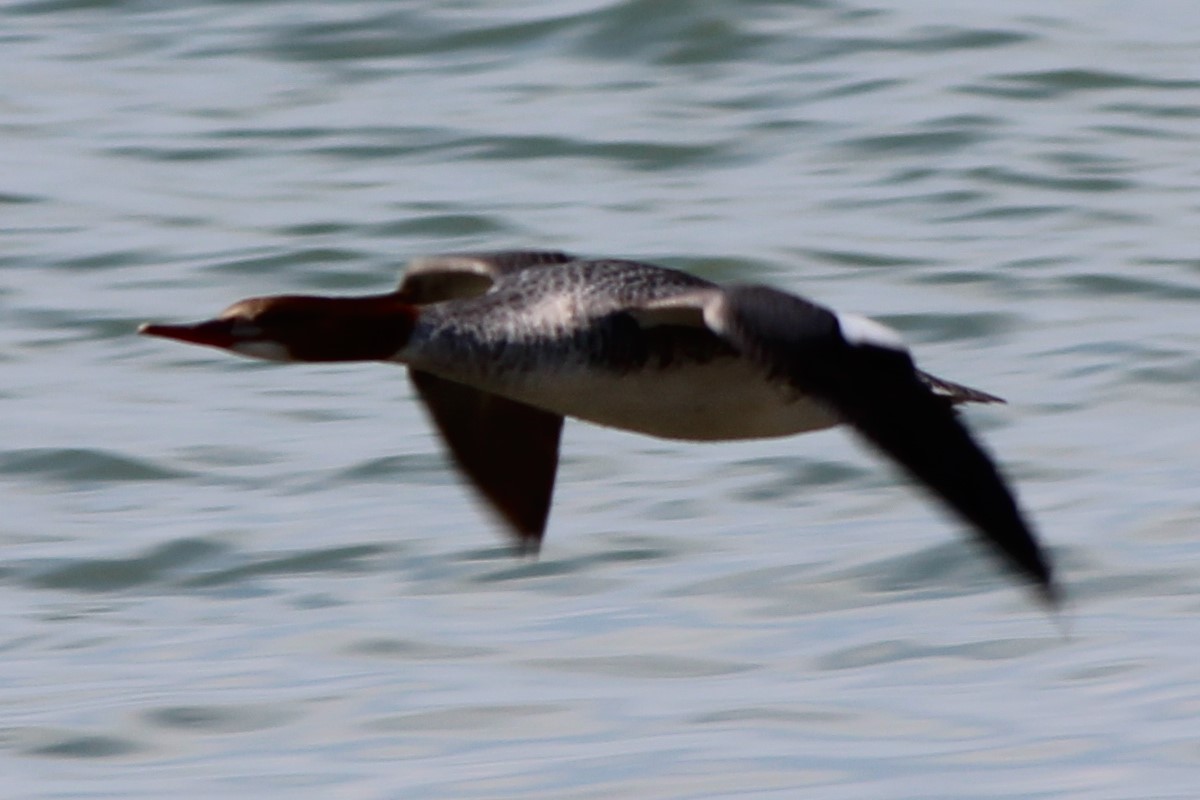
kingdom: Animalia
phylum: Chordata
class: Aves
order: Anseriformes
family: Anatidae
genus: Mergus
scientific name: Mergus merganser
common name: Common merganser
